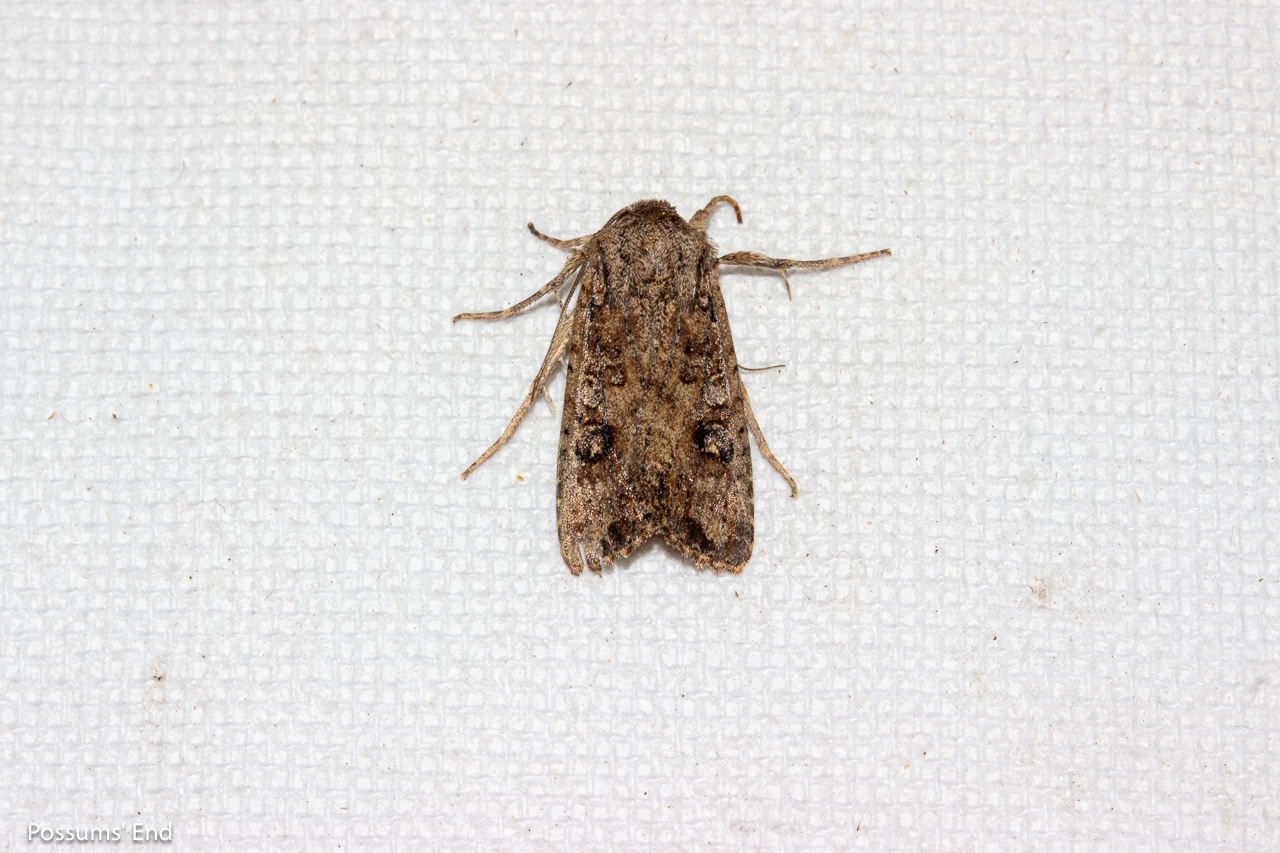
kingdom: Animalia
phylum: Arthropoda
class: Insecta
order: Lepidoptera
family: Noctuidae
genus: Ichneutica
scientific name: Ichneutica morosa
